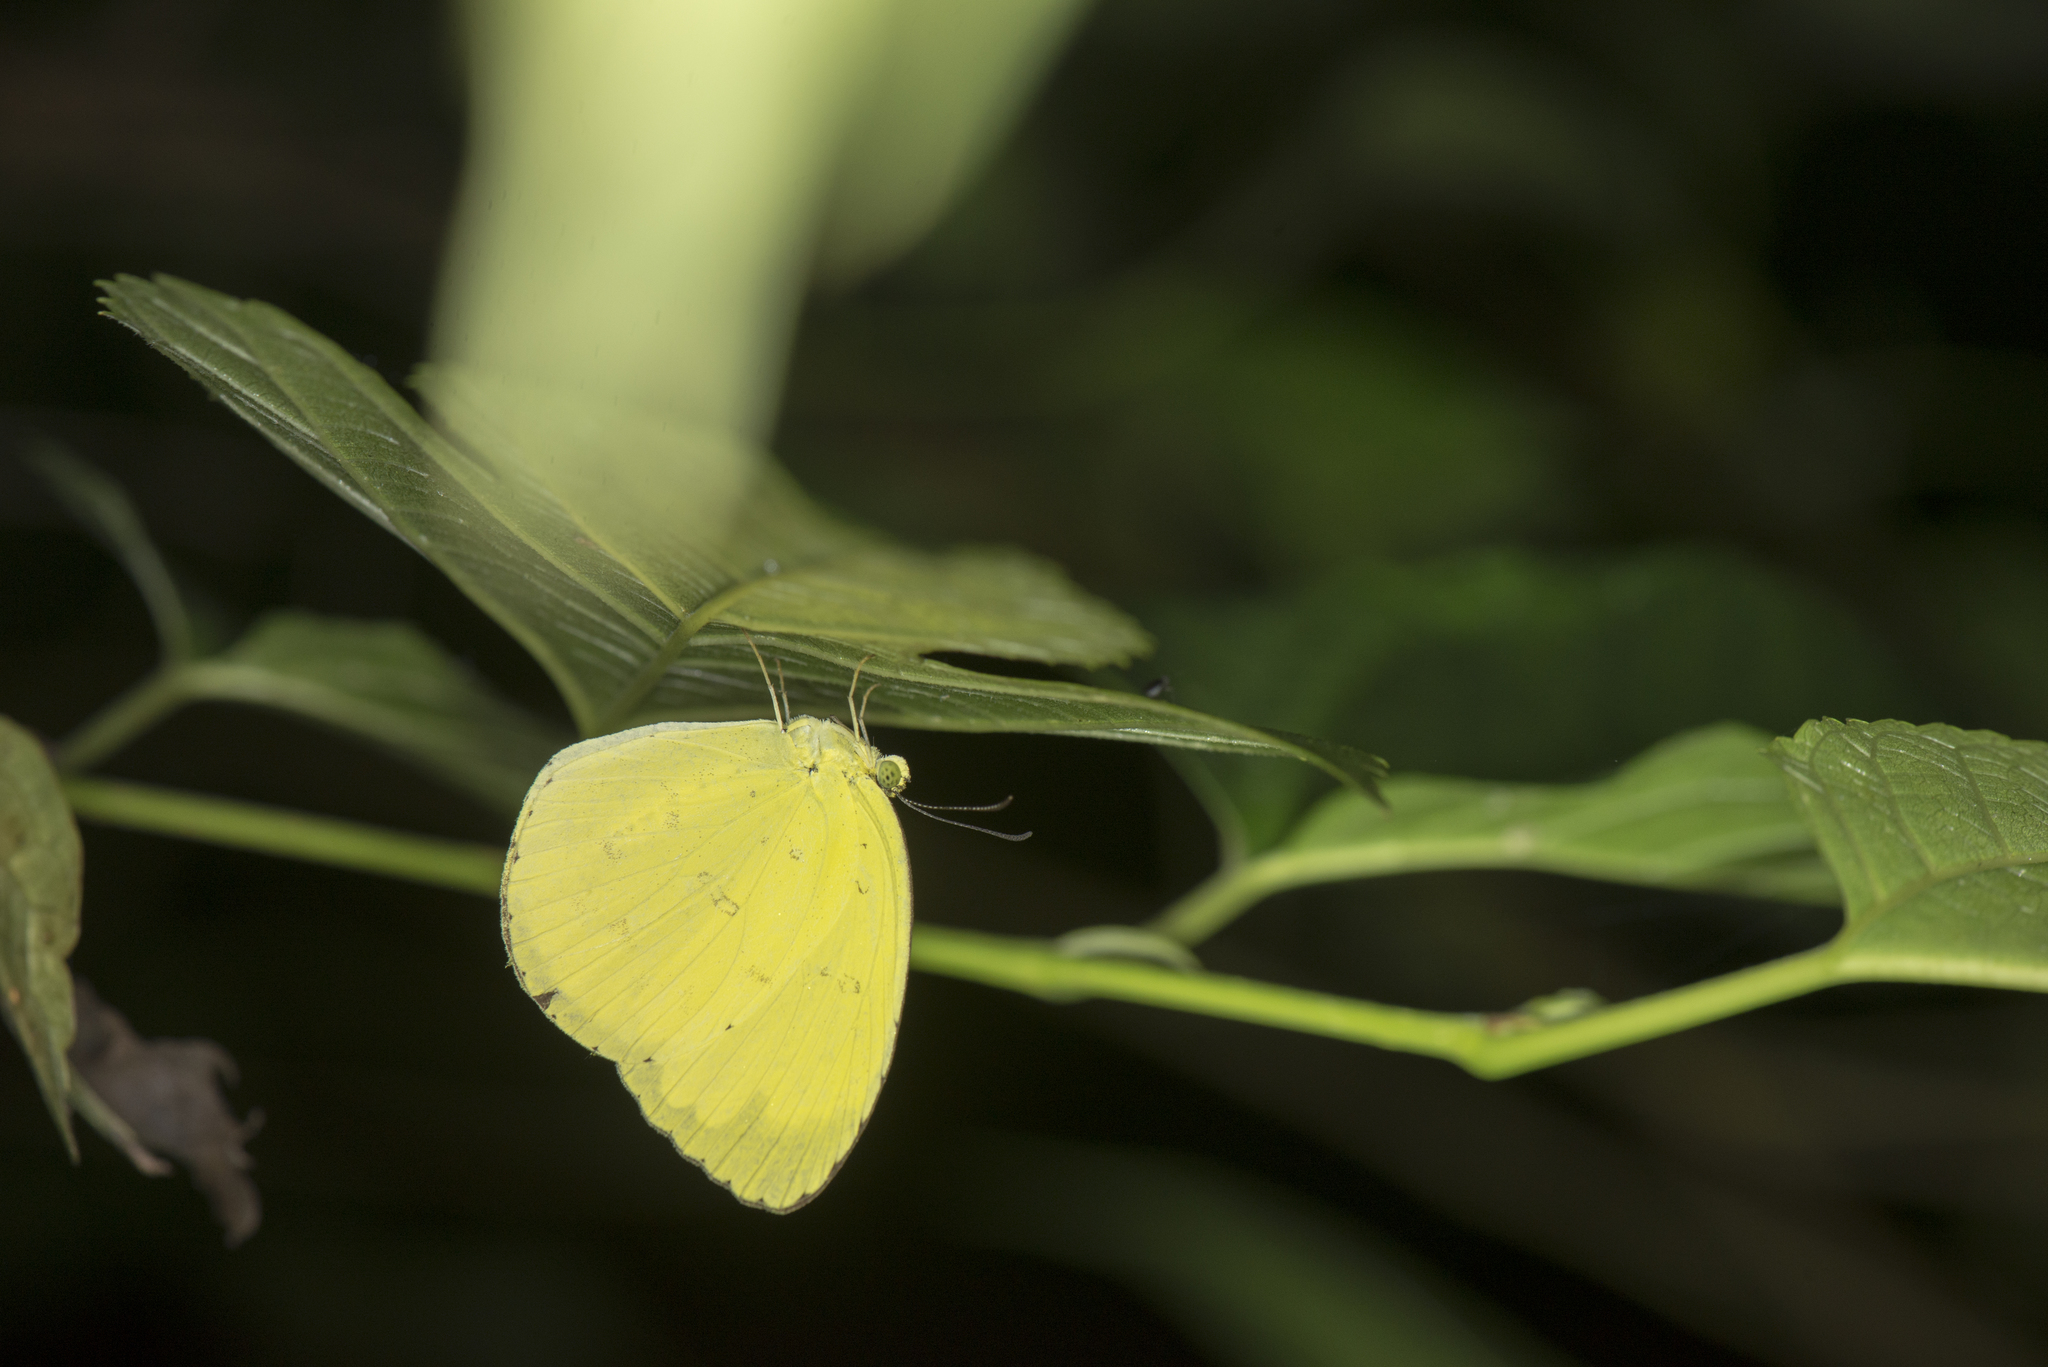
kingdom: Animalia
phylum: Arthropoda
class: Insecta
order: Lepidoptera
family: Pieridae
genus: Eurema
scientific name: Eurema blanda
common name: Three-spot grass yellow
